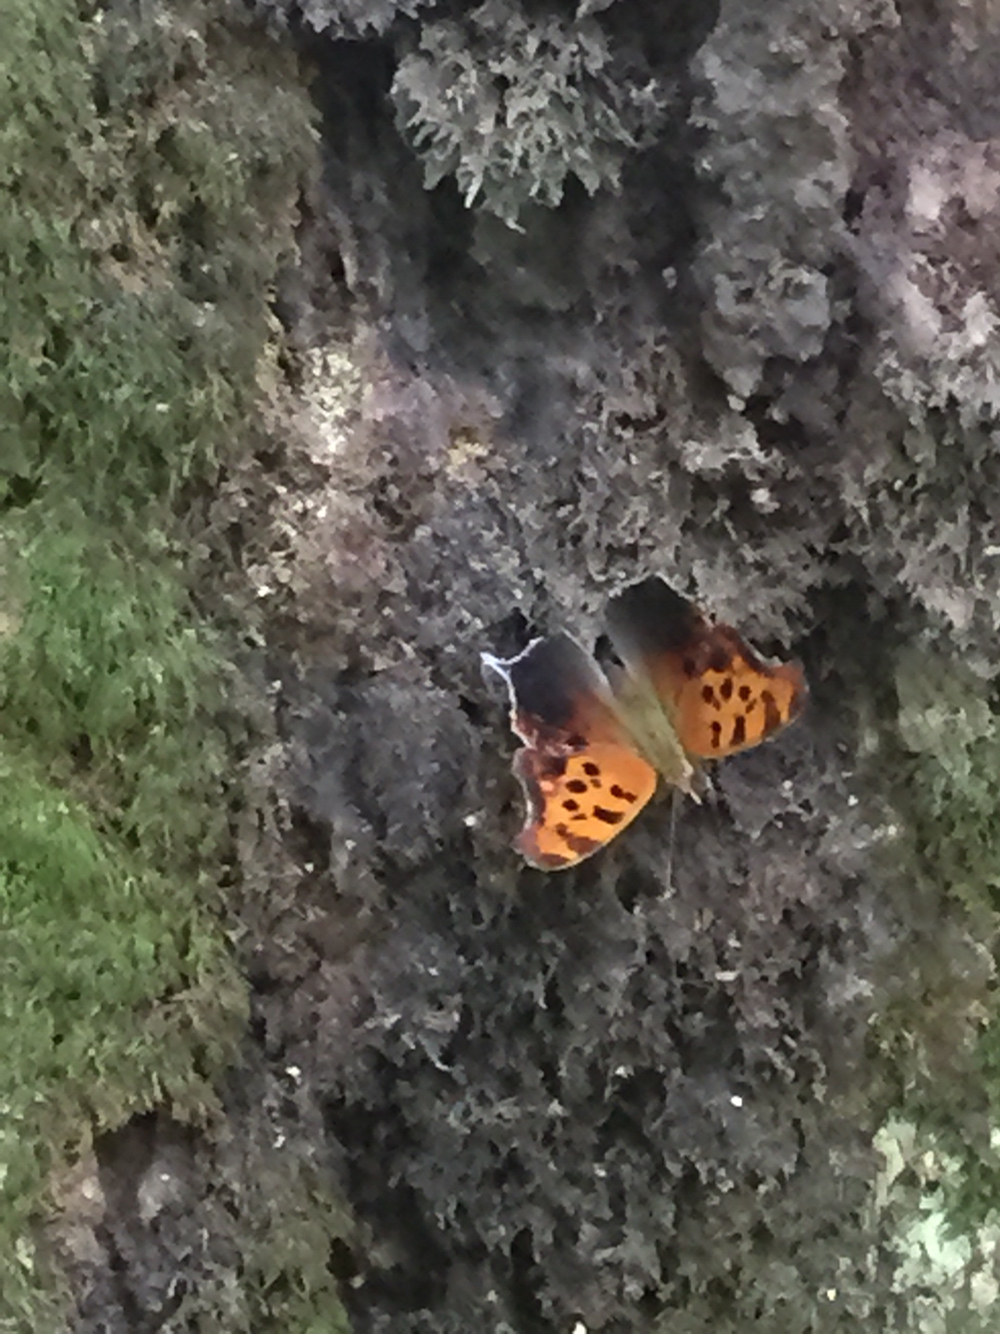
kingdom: Animalia
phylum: Arthropoda
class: Insecta
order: Lepidoptera
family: Nymphalidae
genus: Polygonia
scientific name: Polygonia interrogationis
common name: Question mark
